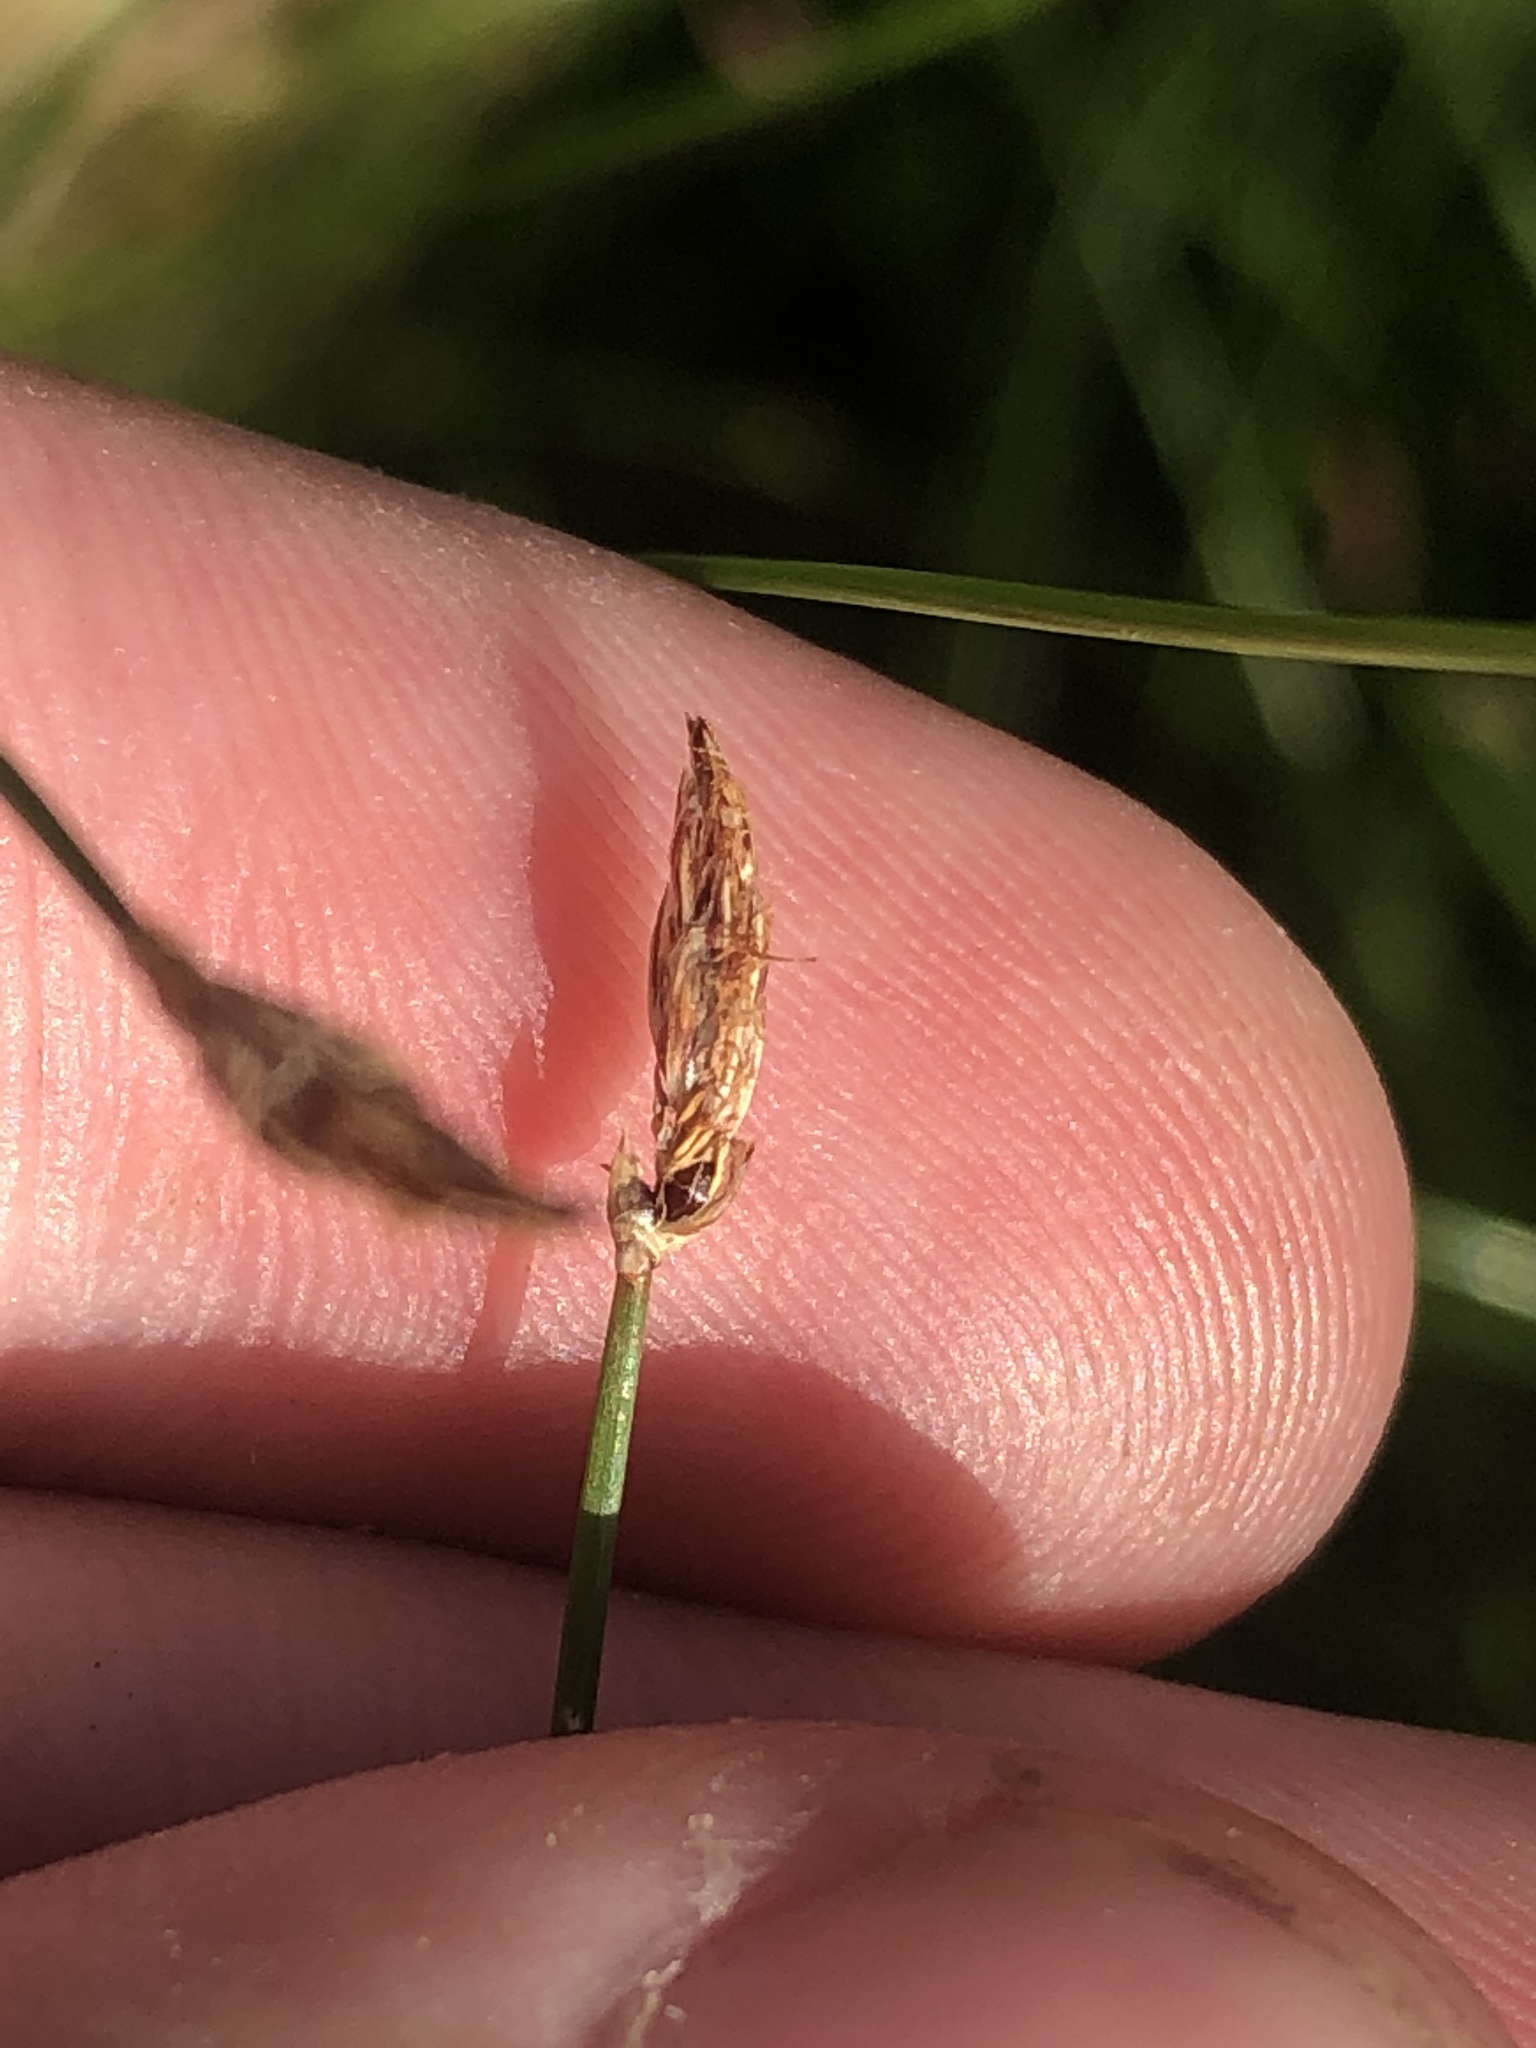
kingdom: Plantae
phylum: Tracheophyta
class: Liliopsida
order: Poales
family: Cyperaceae
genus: Eleocharis
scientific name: Eleocharis palustris
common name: Common spike-rush
